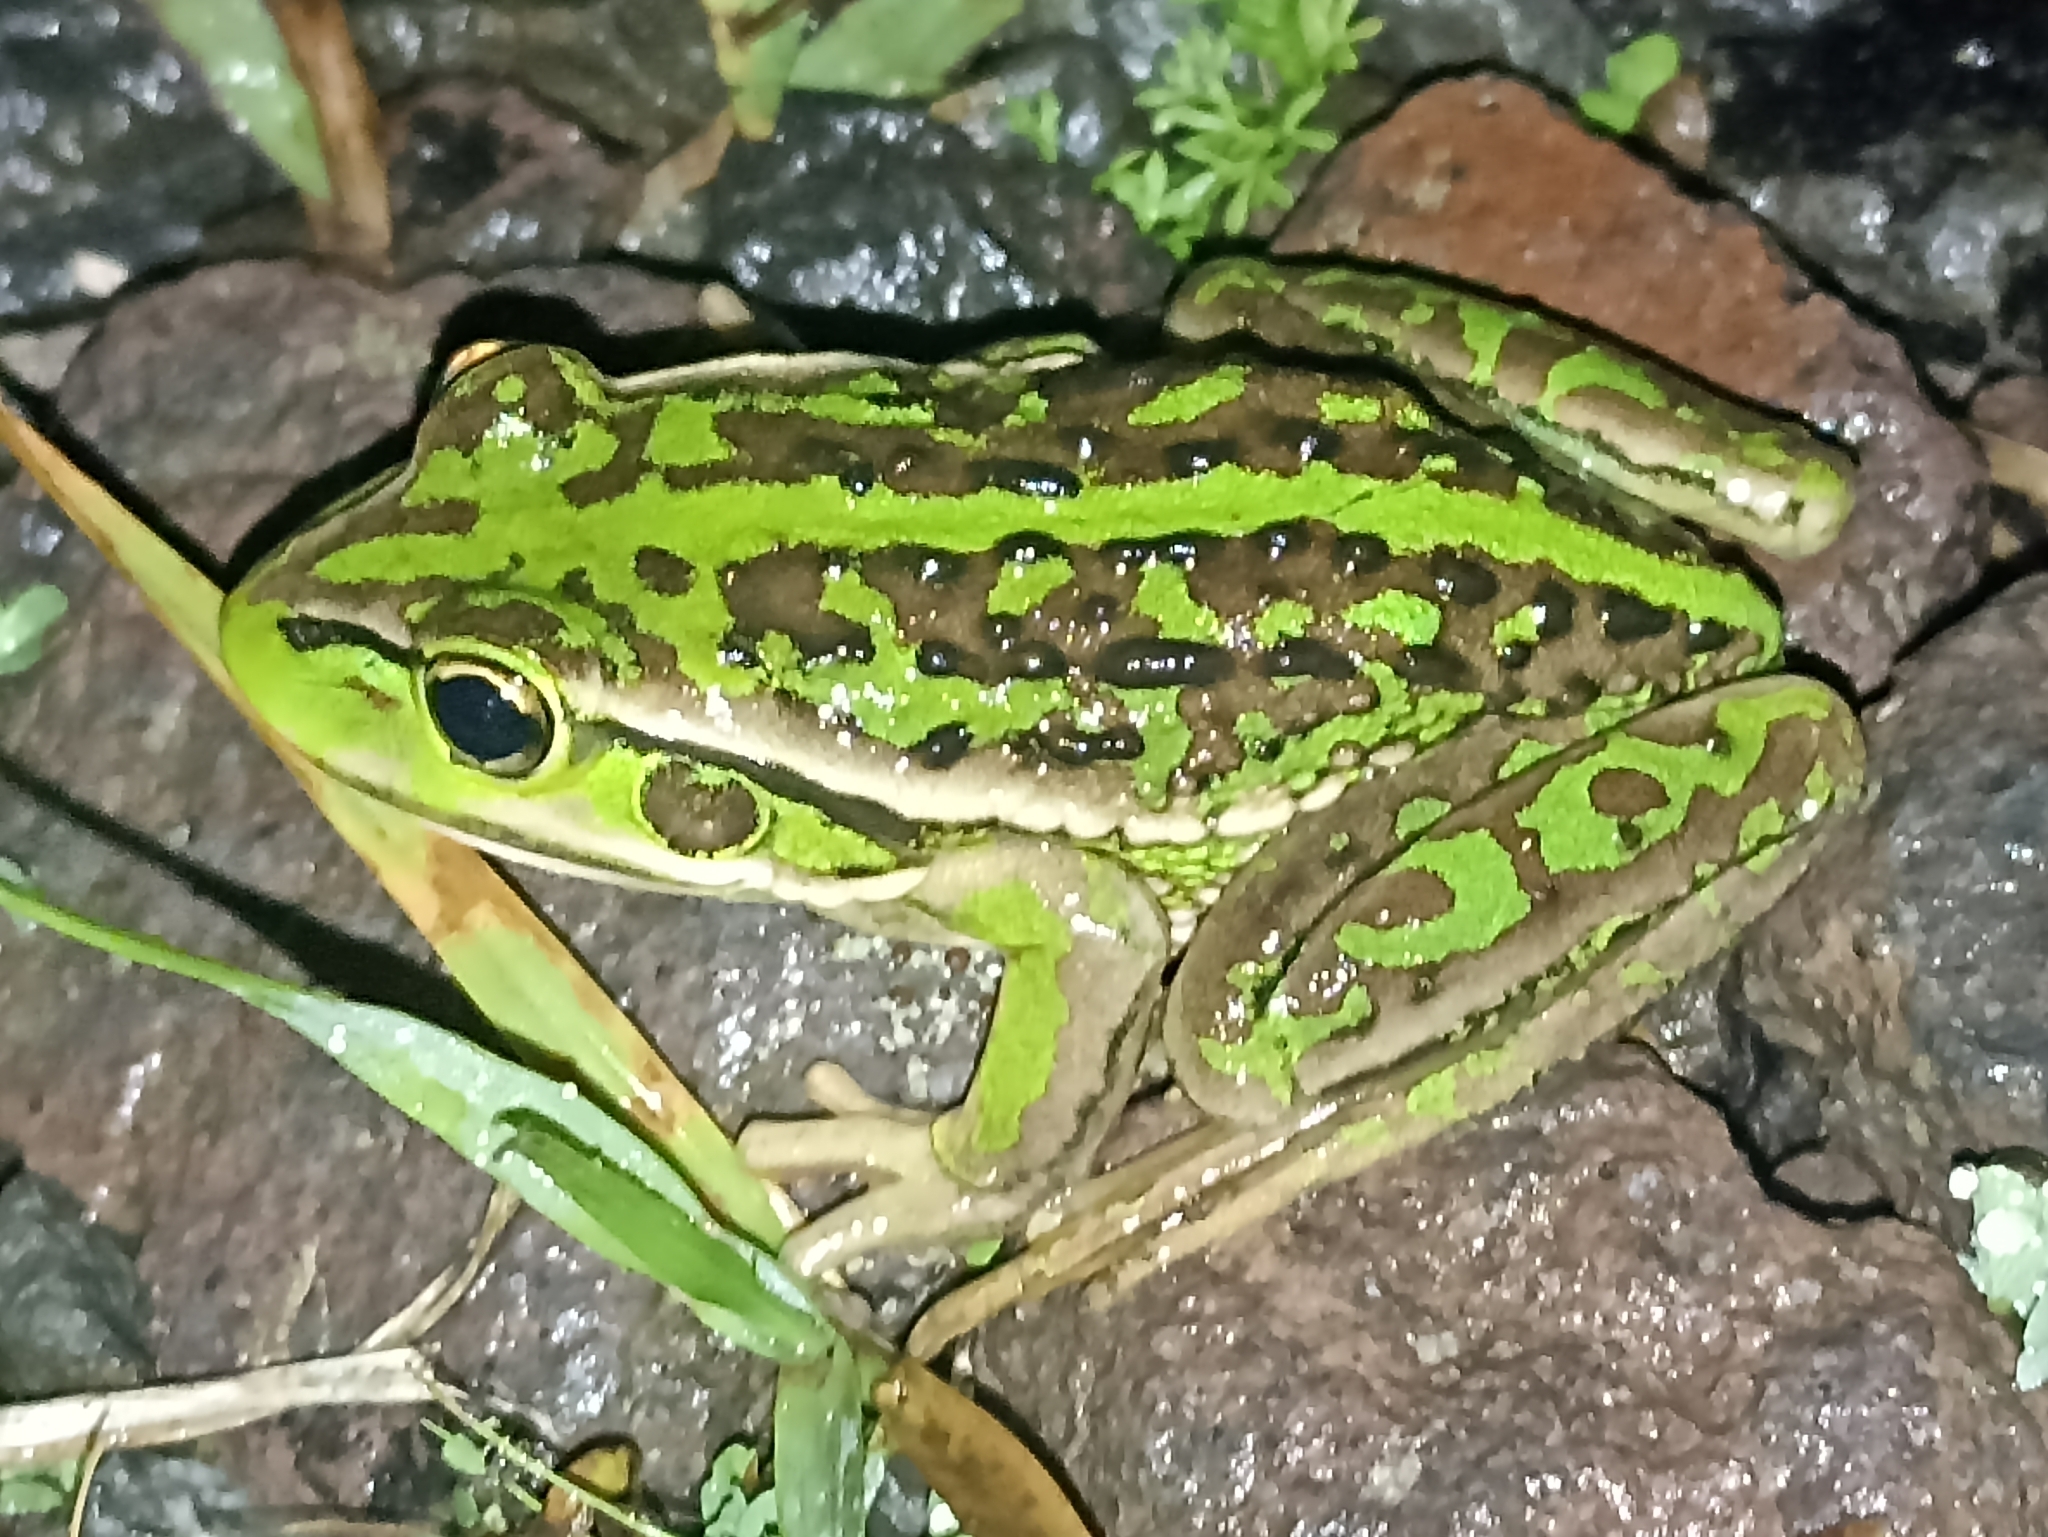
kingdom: Animalia
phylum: Chordata
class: Amphibia
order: Anura
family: Pelodryadidae
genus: Ranoidea
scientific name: Ranoidea raniformis
